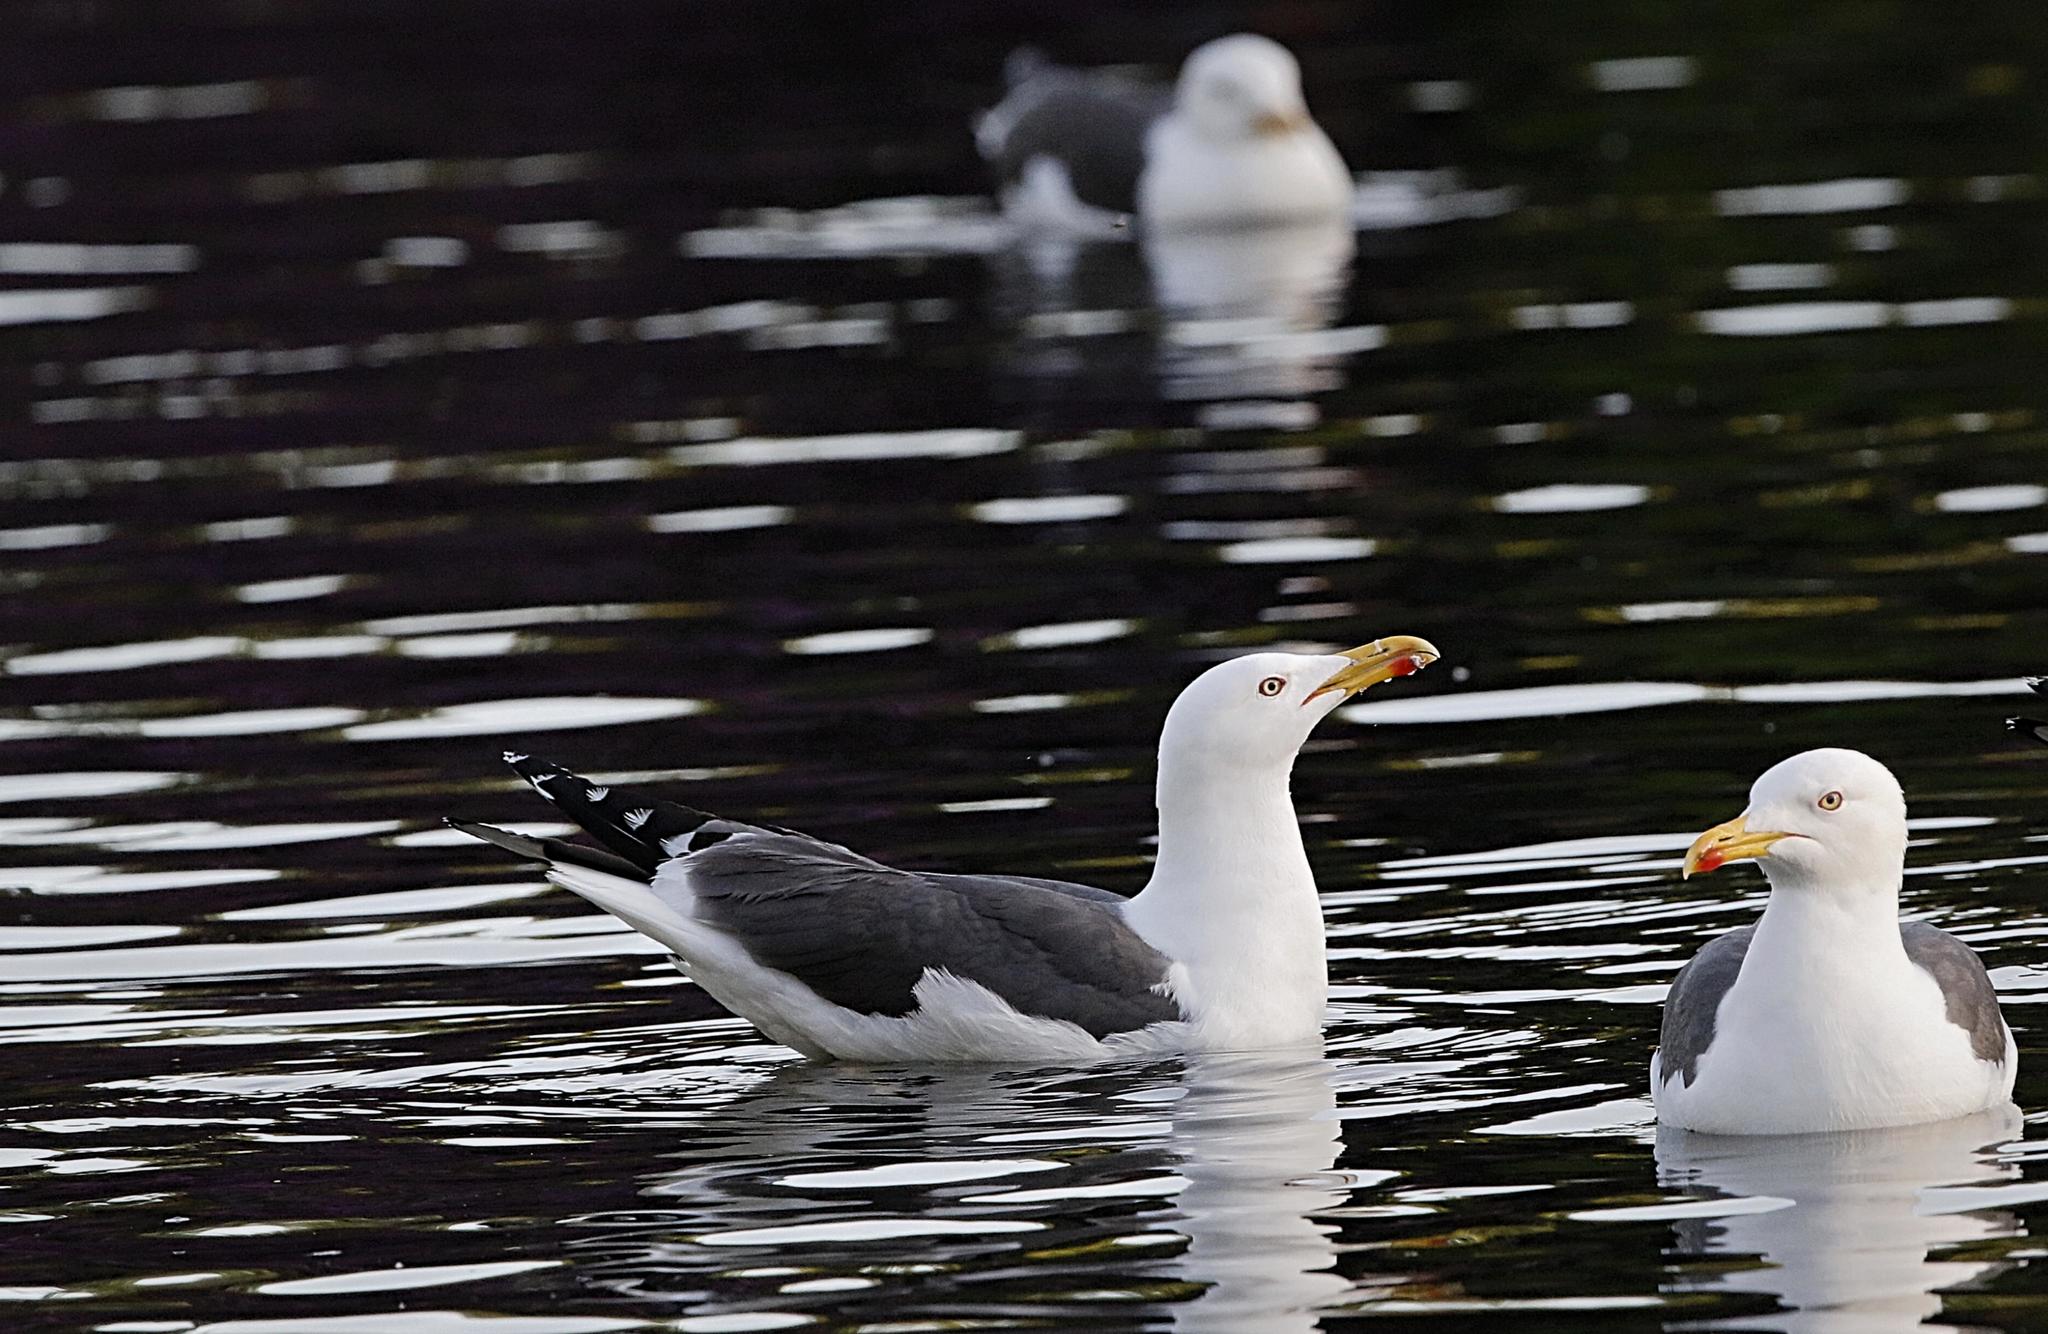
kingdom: Animalia
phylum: Chordata
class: Aves
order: Charadriiformes
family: Laridae
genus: Larus
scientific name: Larus fuscus
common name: Lesser black-backed gull
